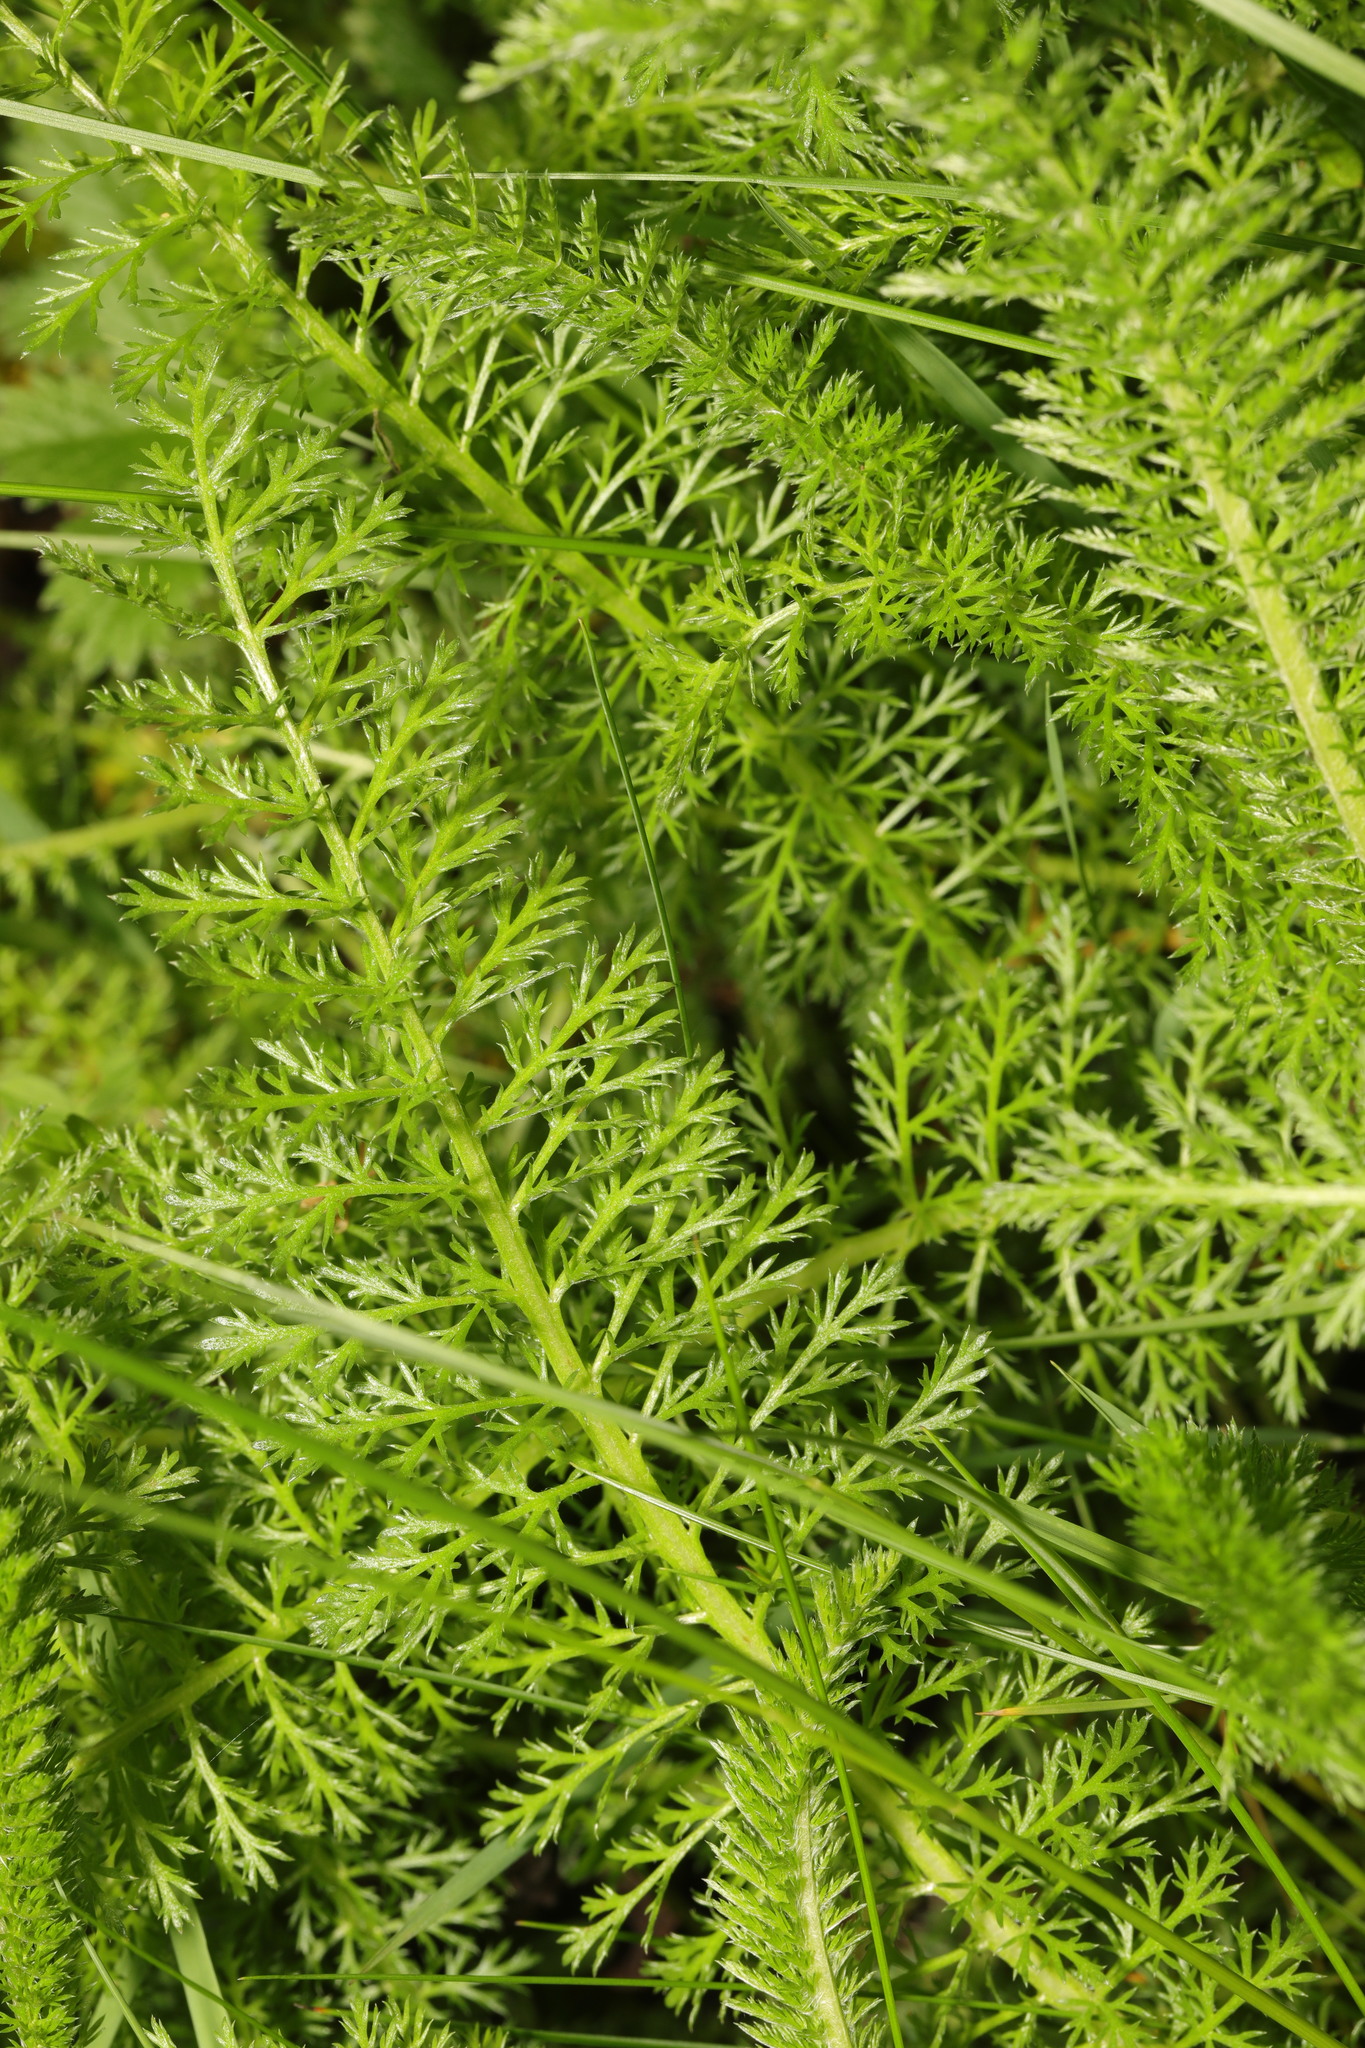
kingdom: Plantae
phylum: Tracheophyta
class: Magnoliopsida
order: Asterales
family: Asteraceae
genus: Achillea
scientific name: Achillea millefolium
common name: Yarrow
